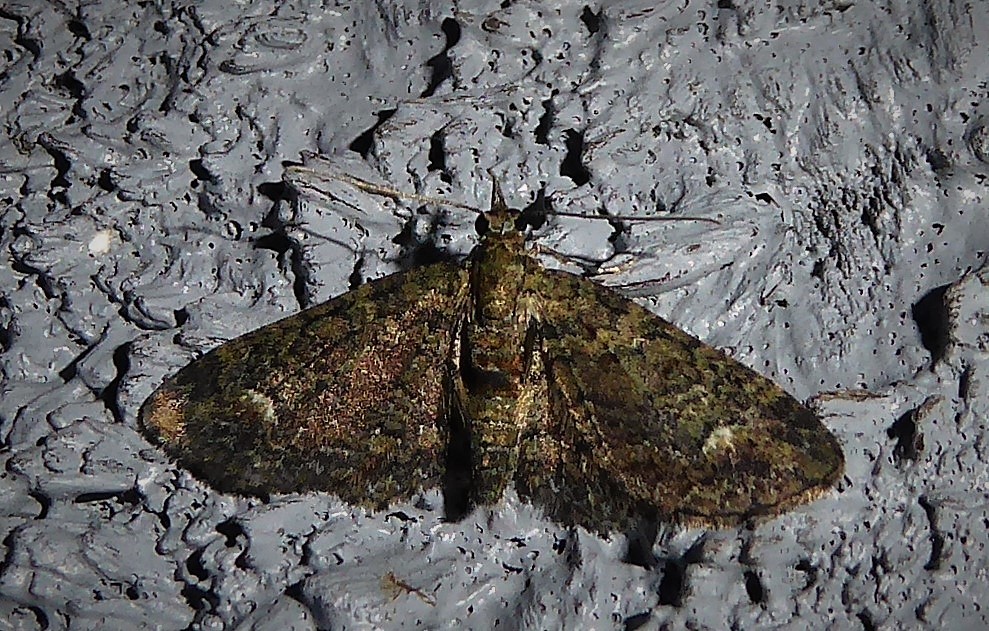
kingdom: Animalia
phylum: Arthropoda
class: Insecta
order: Lepidoptera
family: Geometridae
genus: Pasiphilodes
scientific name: Pasiphilodes testulata
